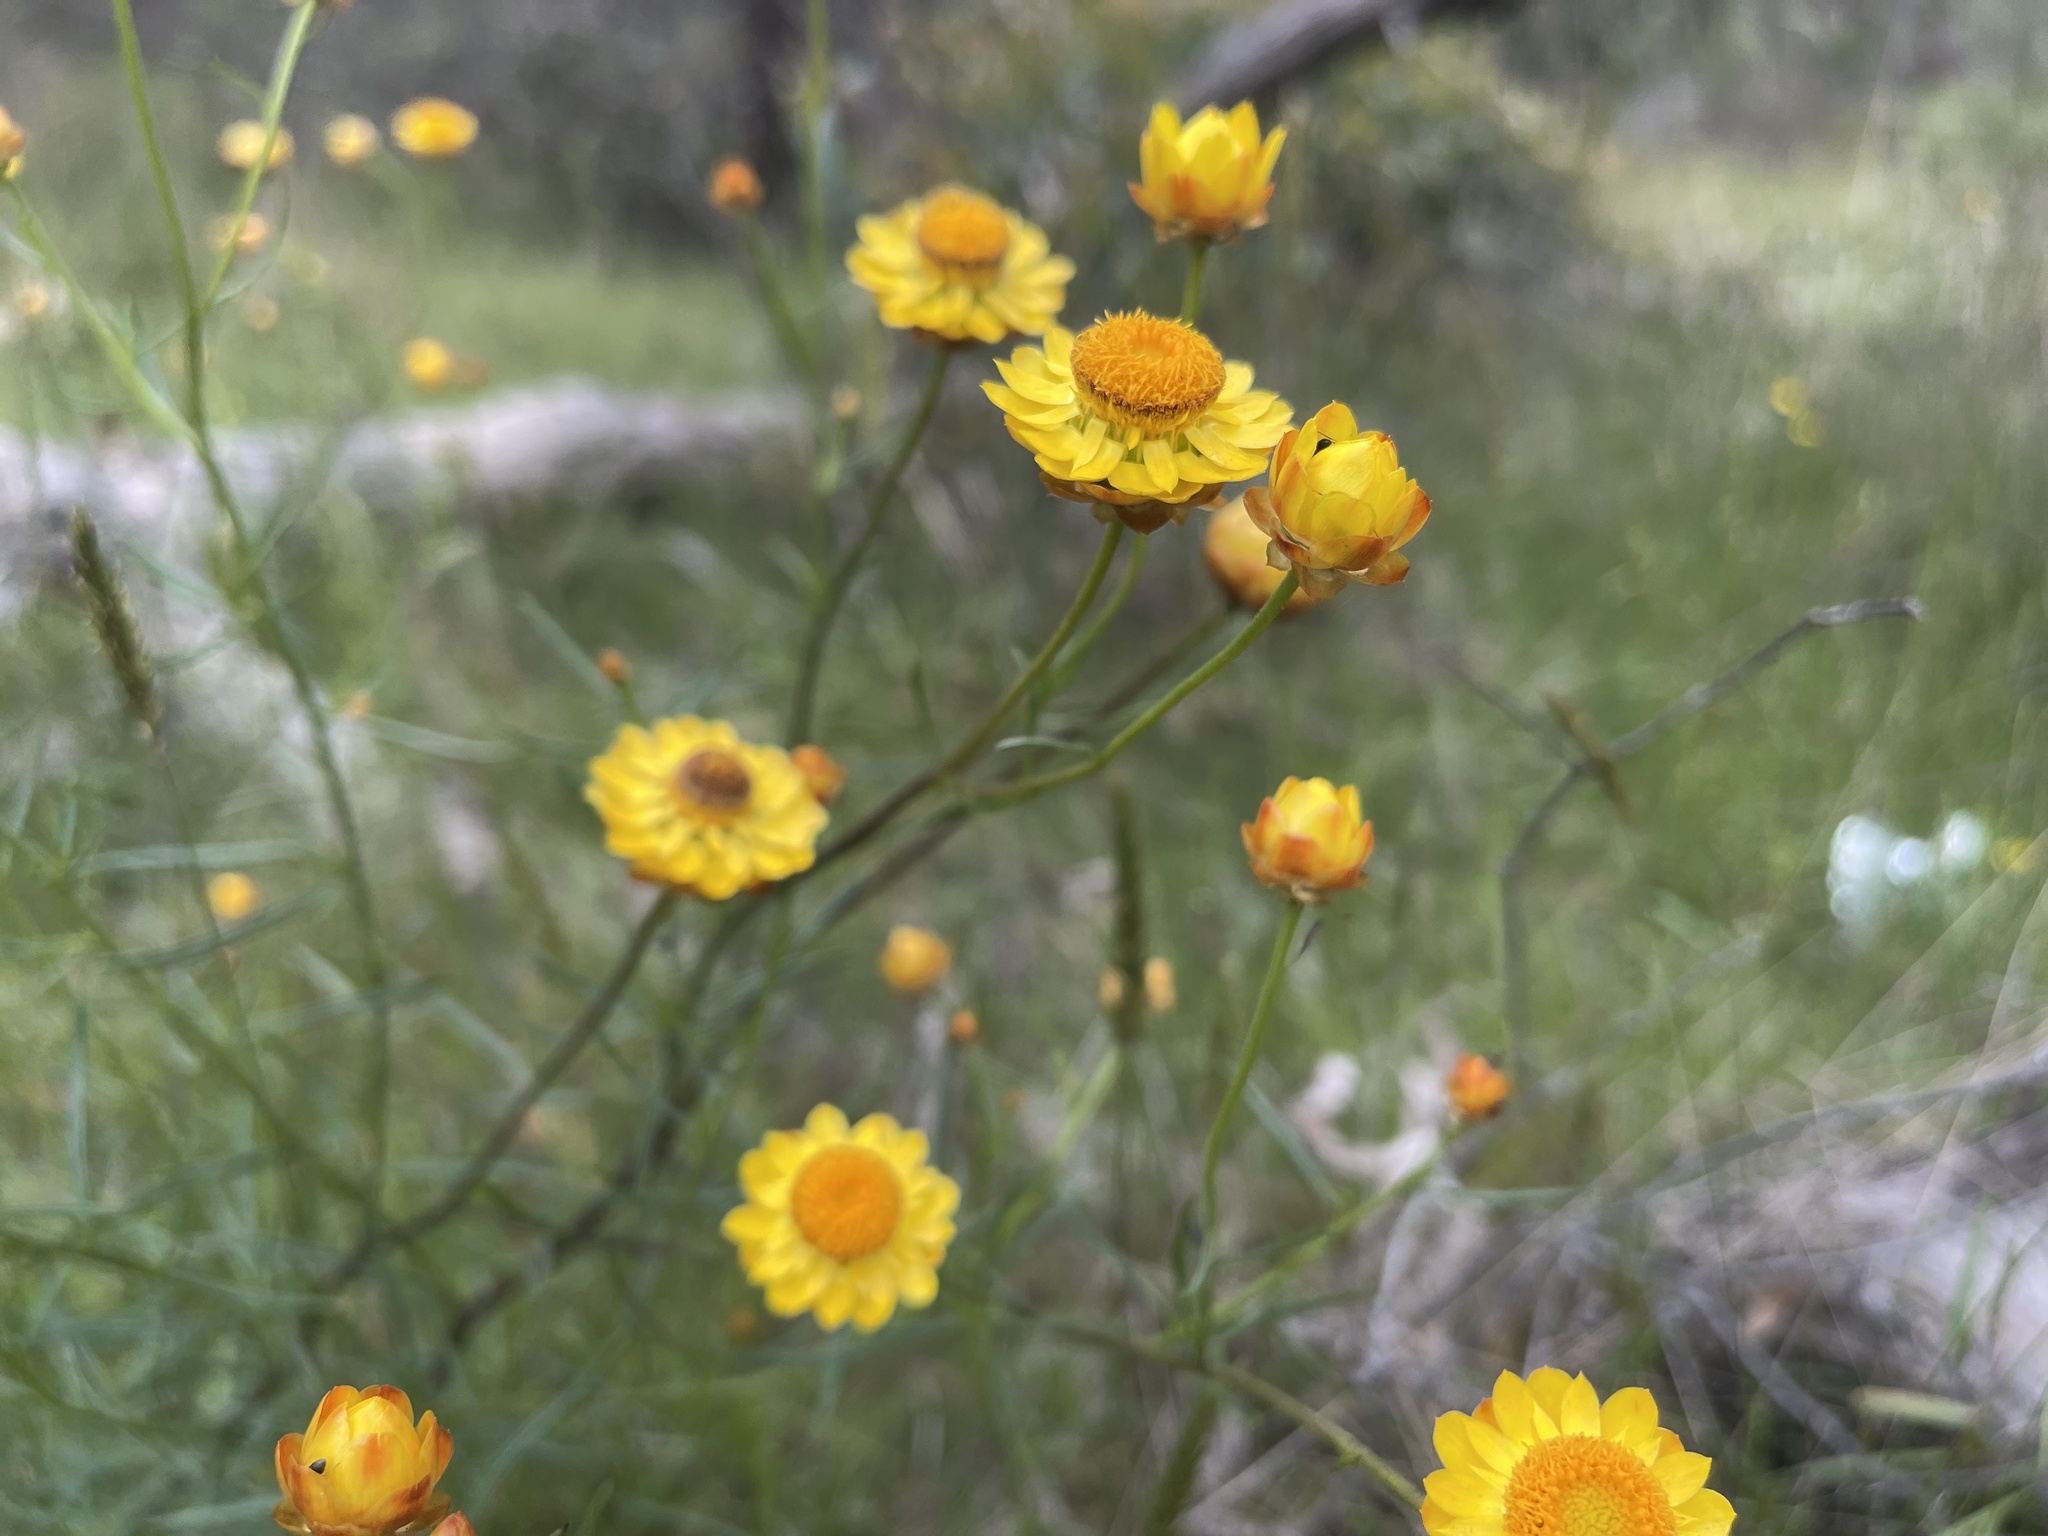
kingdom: Plantae
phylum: Tracheophyta
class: Magnoliopsida
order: Asterales
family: Asteraceae
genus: Xerochrysum
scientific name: Xerochrysum viscosum
